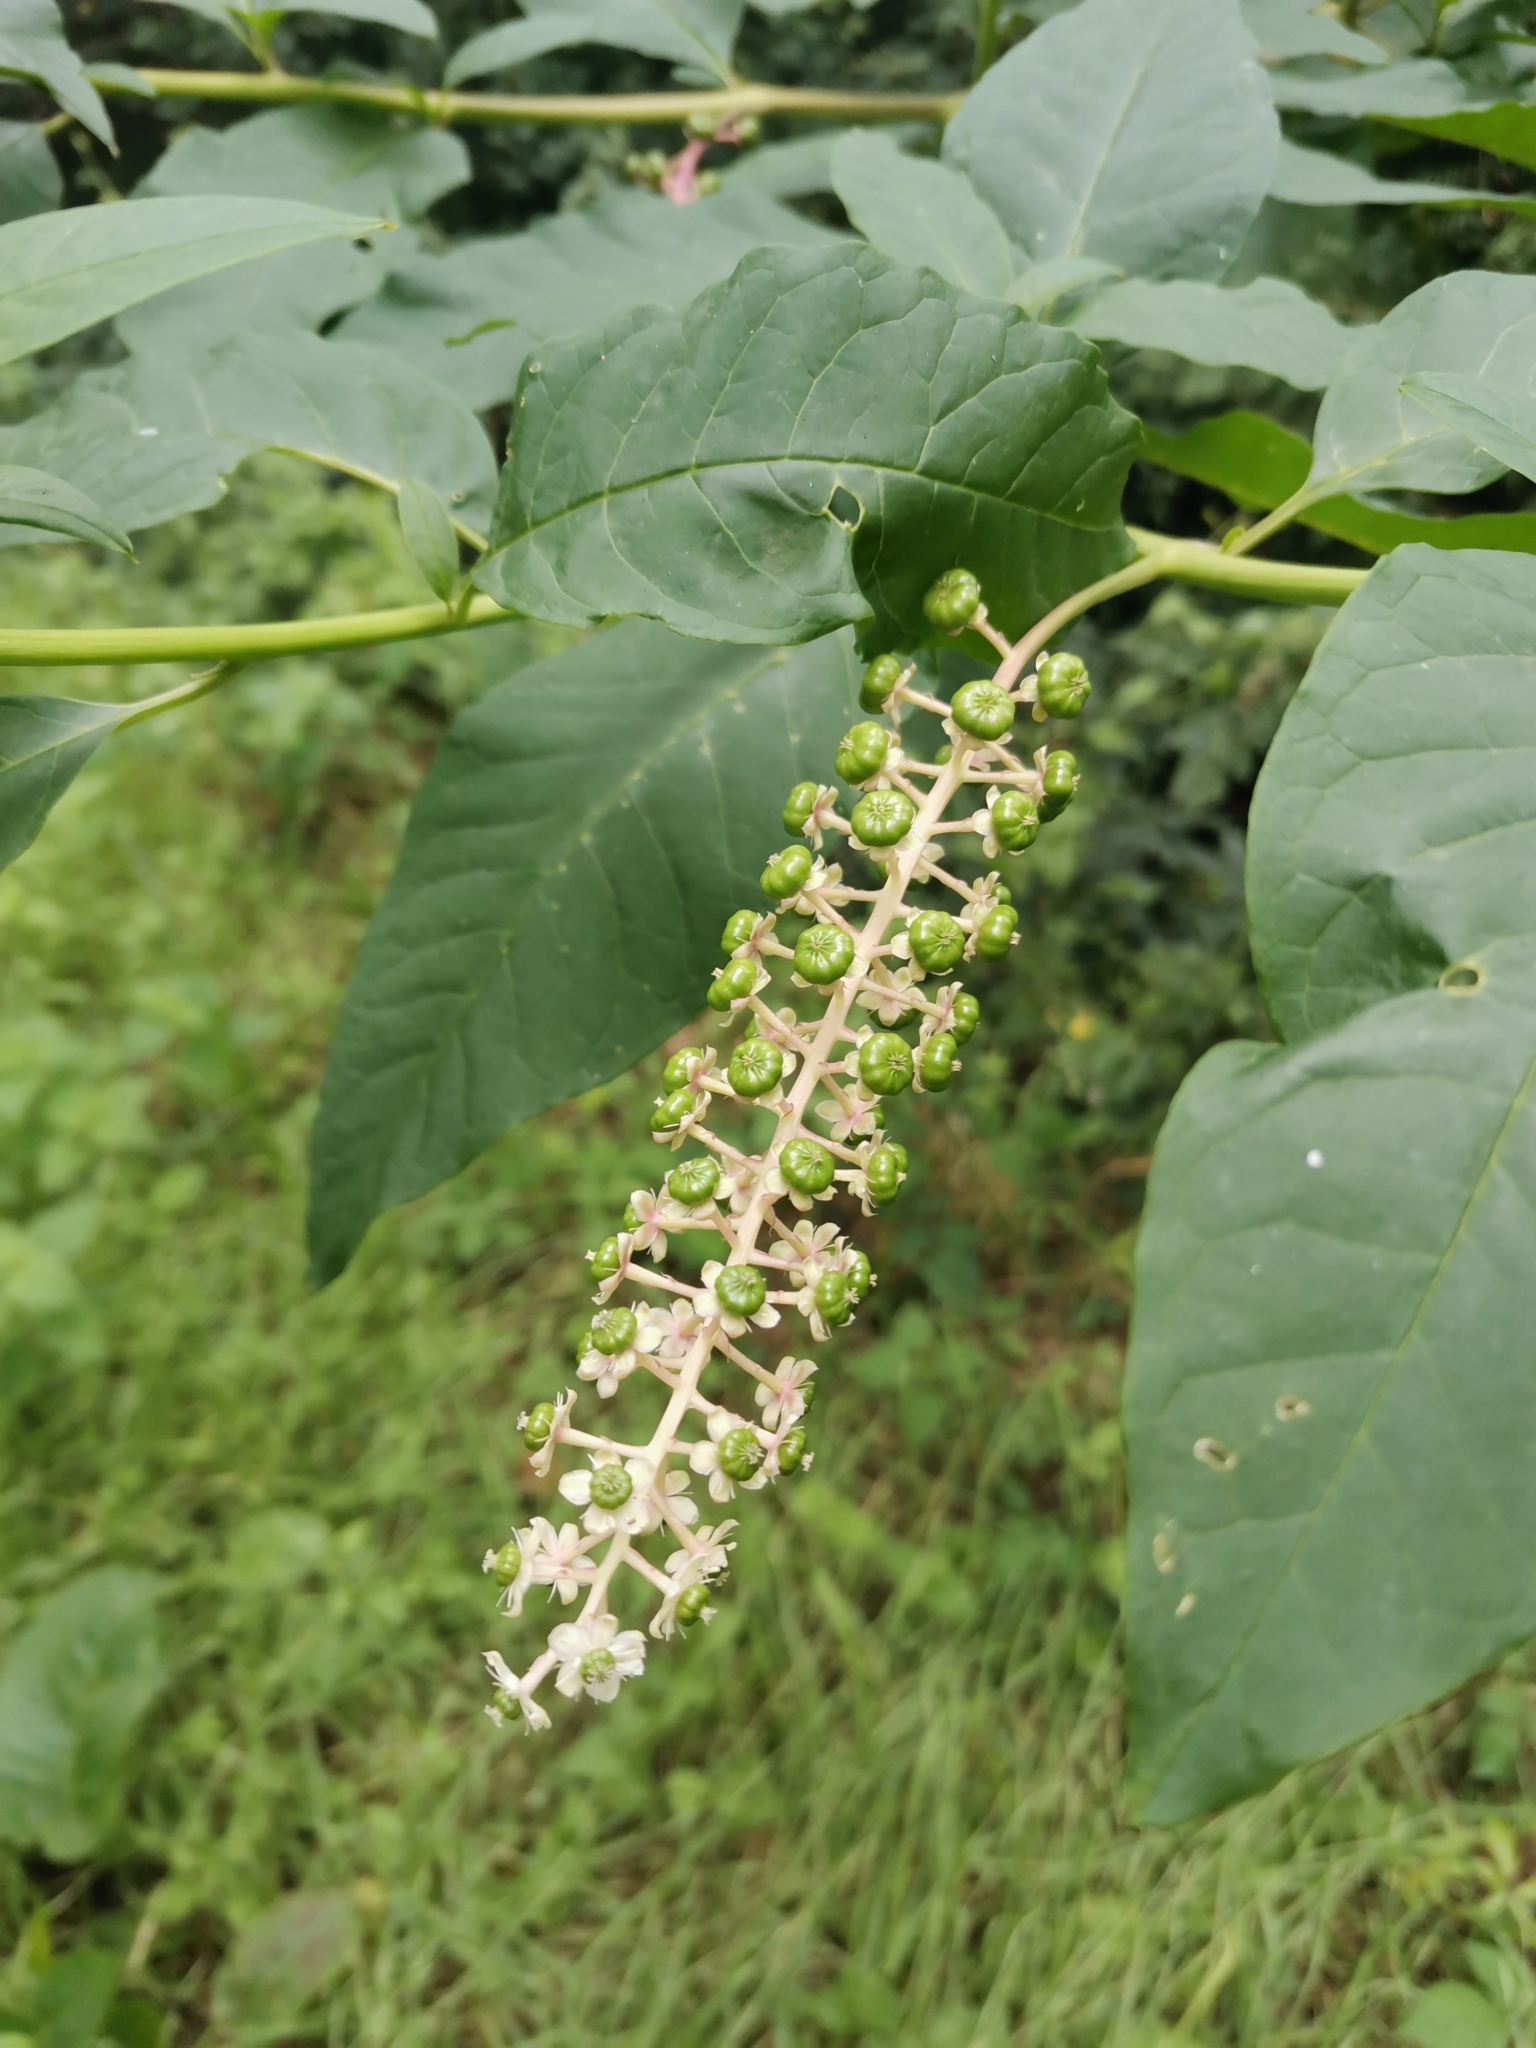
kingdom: Plantae
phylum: Tracheophyta
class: Magnoliopsida
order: Caryophyllales
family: Phytolaccaceae
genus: Phytolacca
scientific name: Phytolacca americana
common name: American pokeweed
